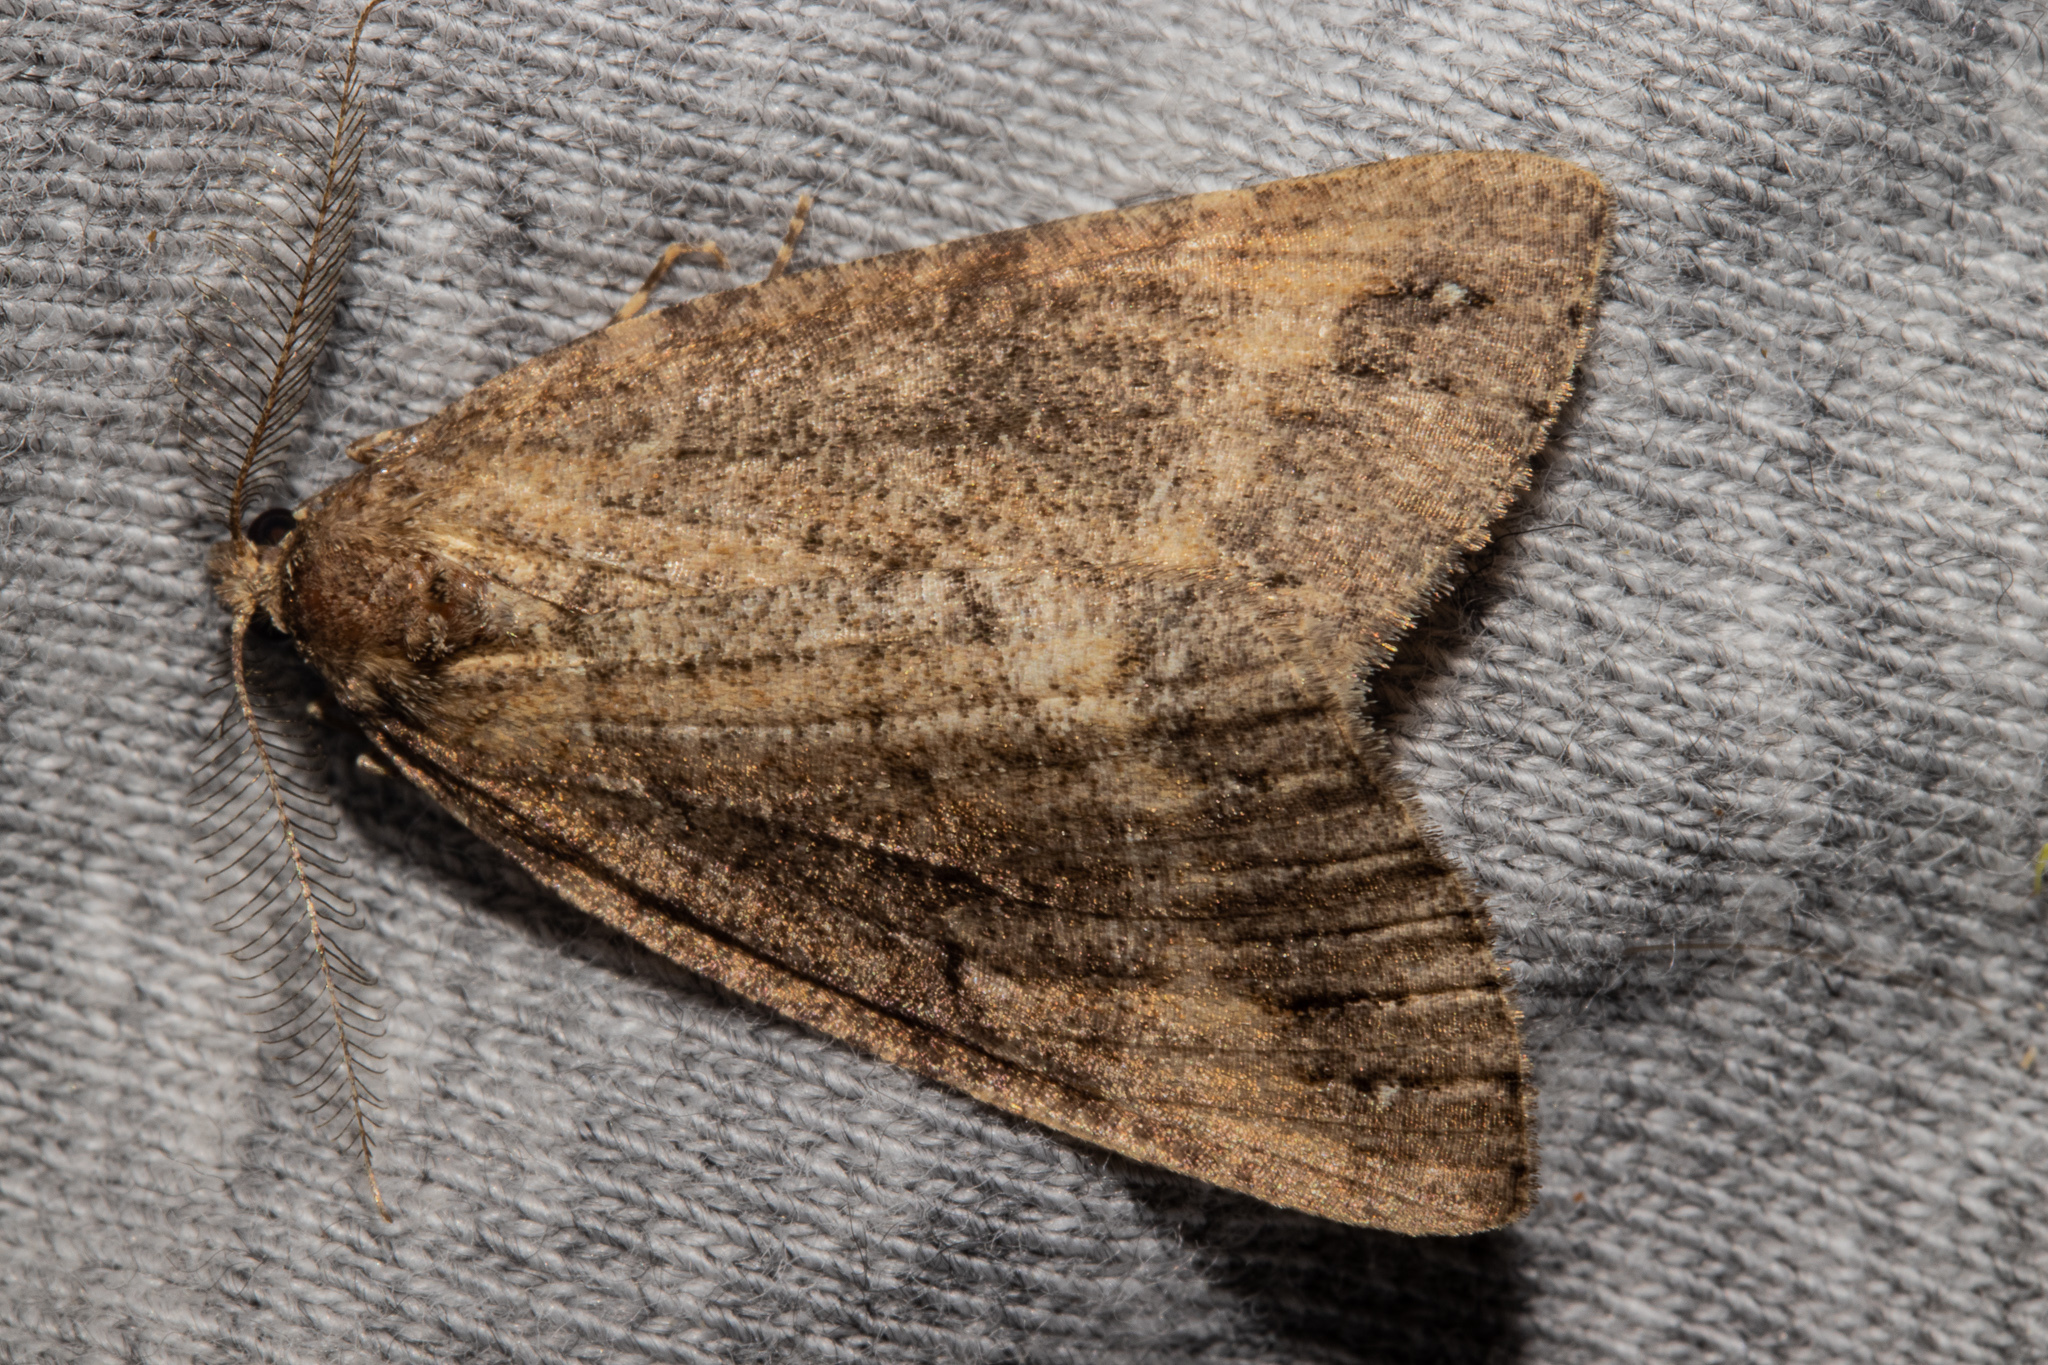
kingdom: Animalia
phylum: Arthropoda
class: Insecta
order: Lepidoptera
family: Geometridae
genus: Pseudocoremia
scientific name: Pseudocoremia berylia
